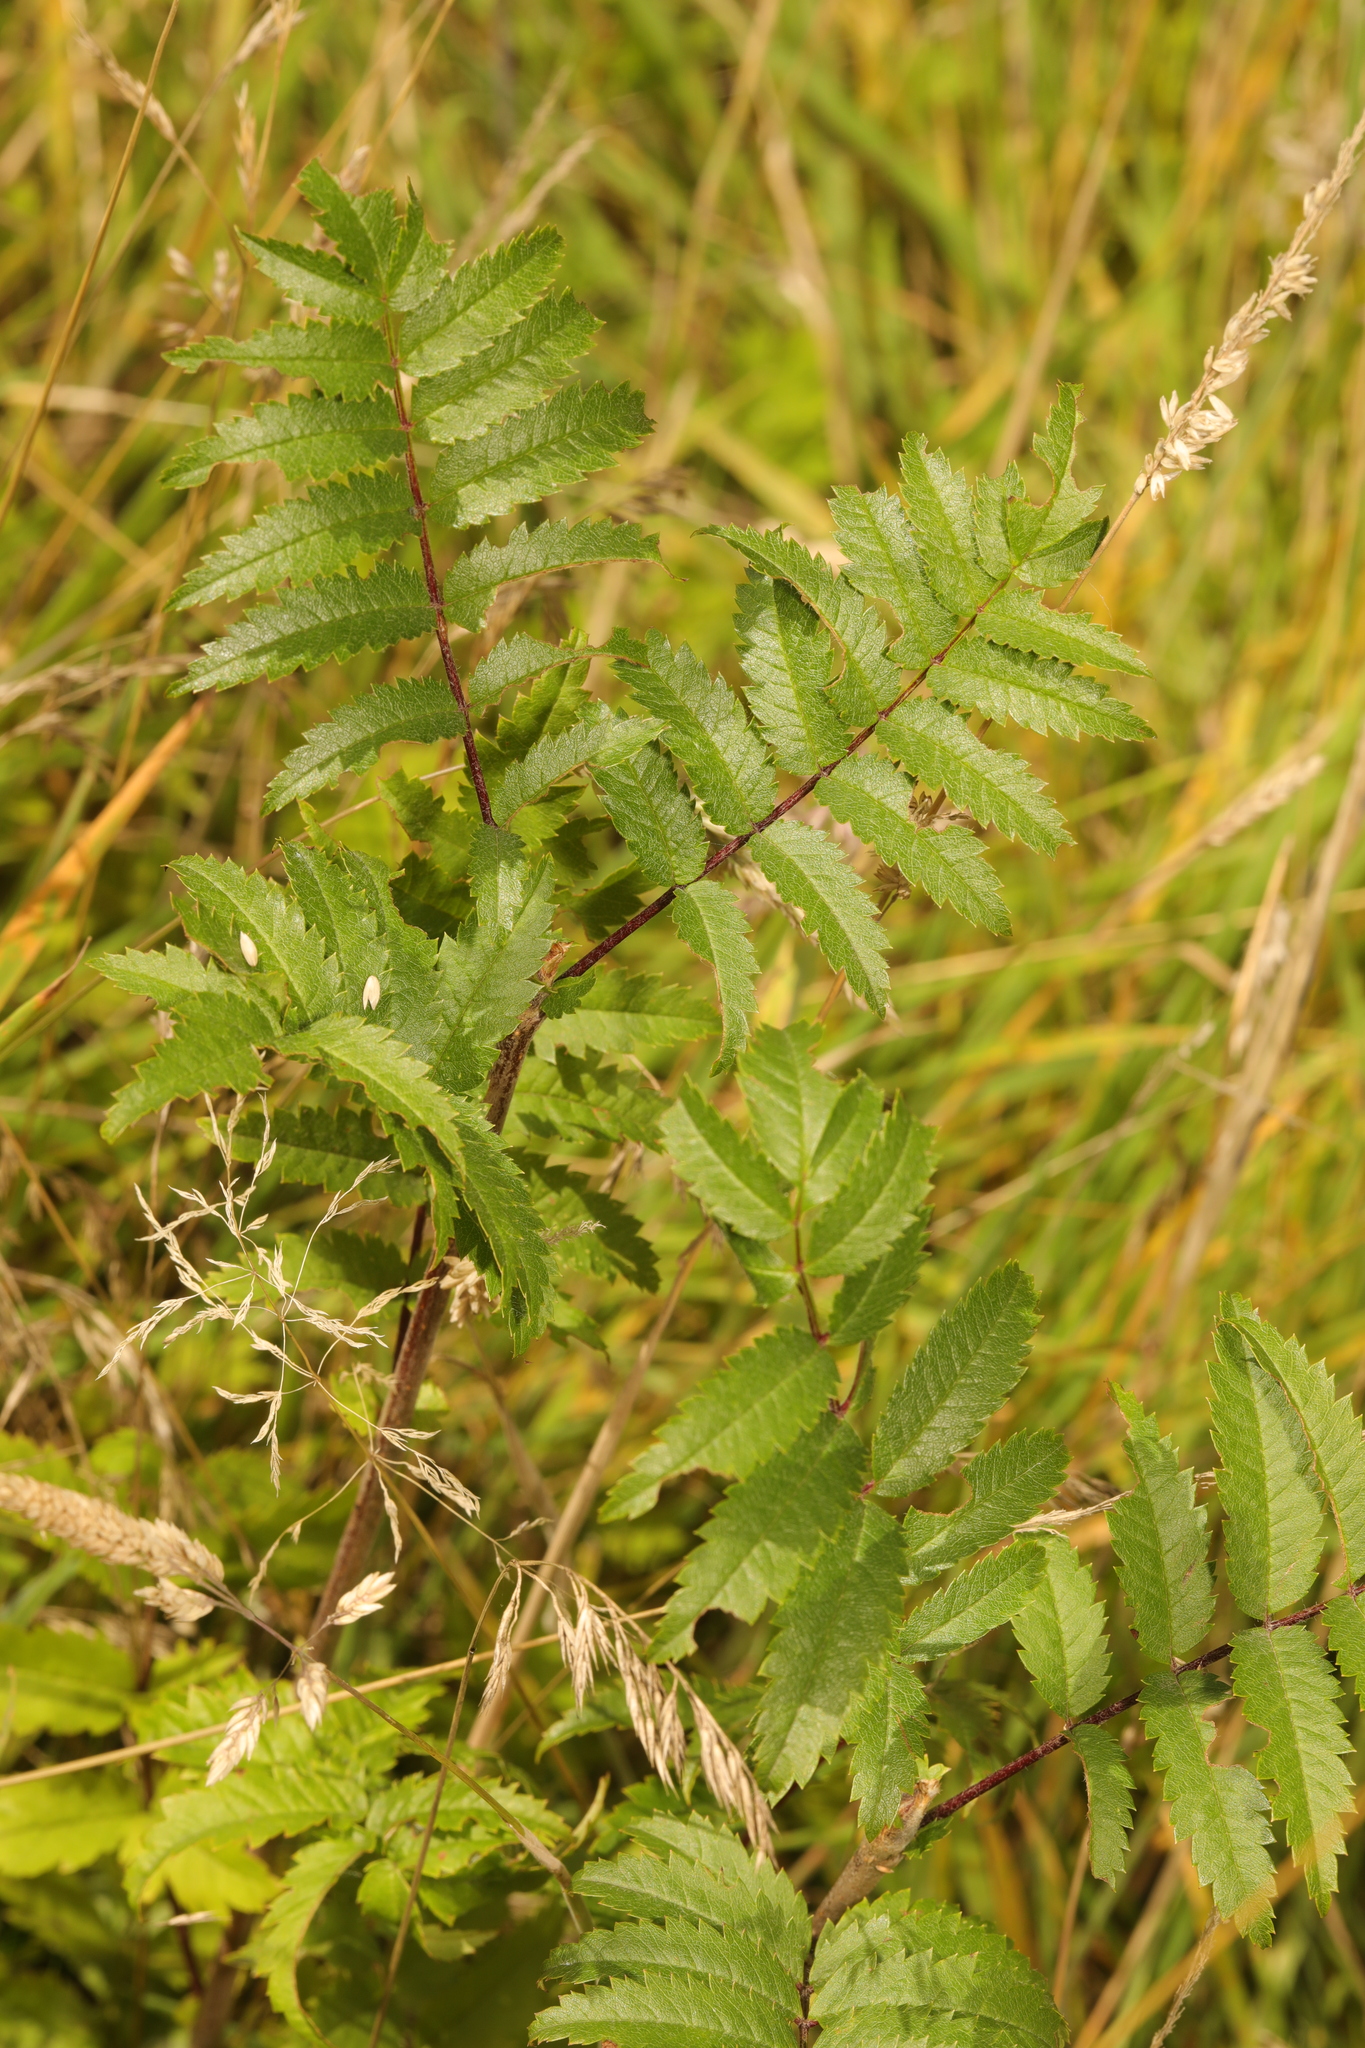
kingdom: Plantae
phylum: Tracheophyta
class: Magnoliopsida
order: Rosales
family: Rosaceae
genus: Sorbus
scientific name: Sorbus aucuparia
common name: Rowan
